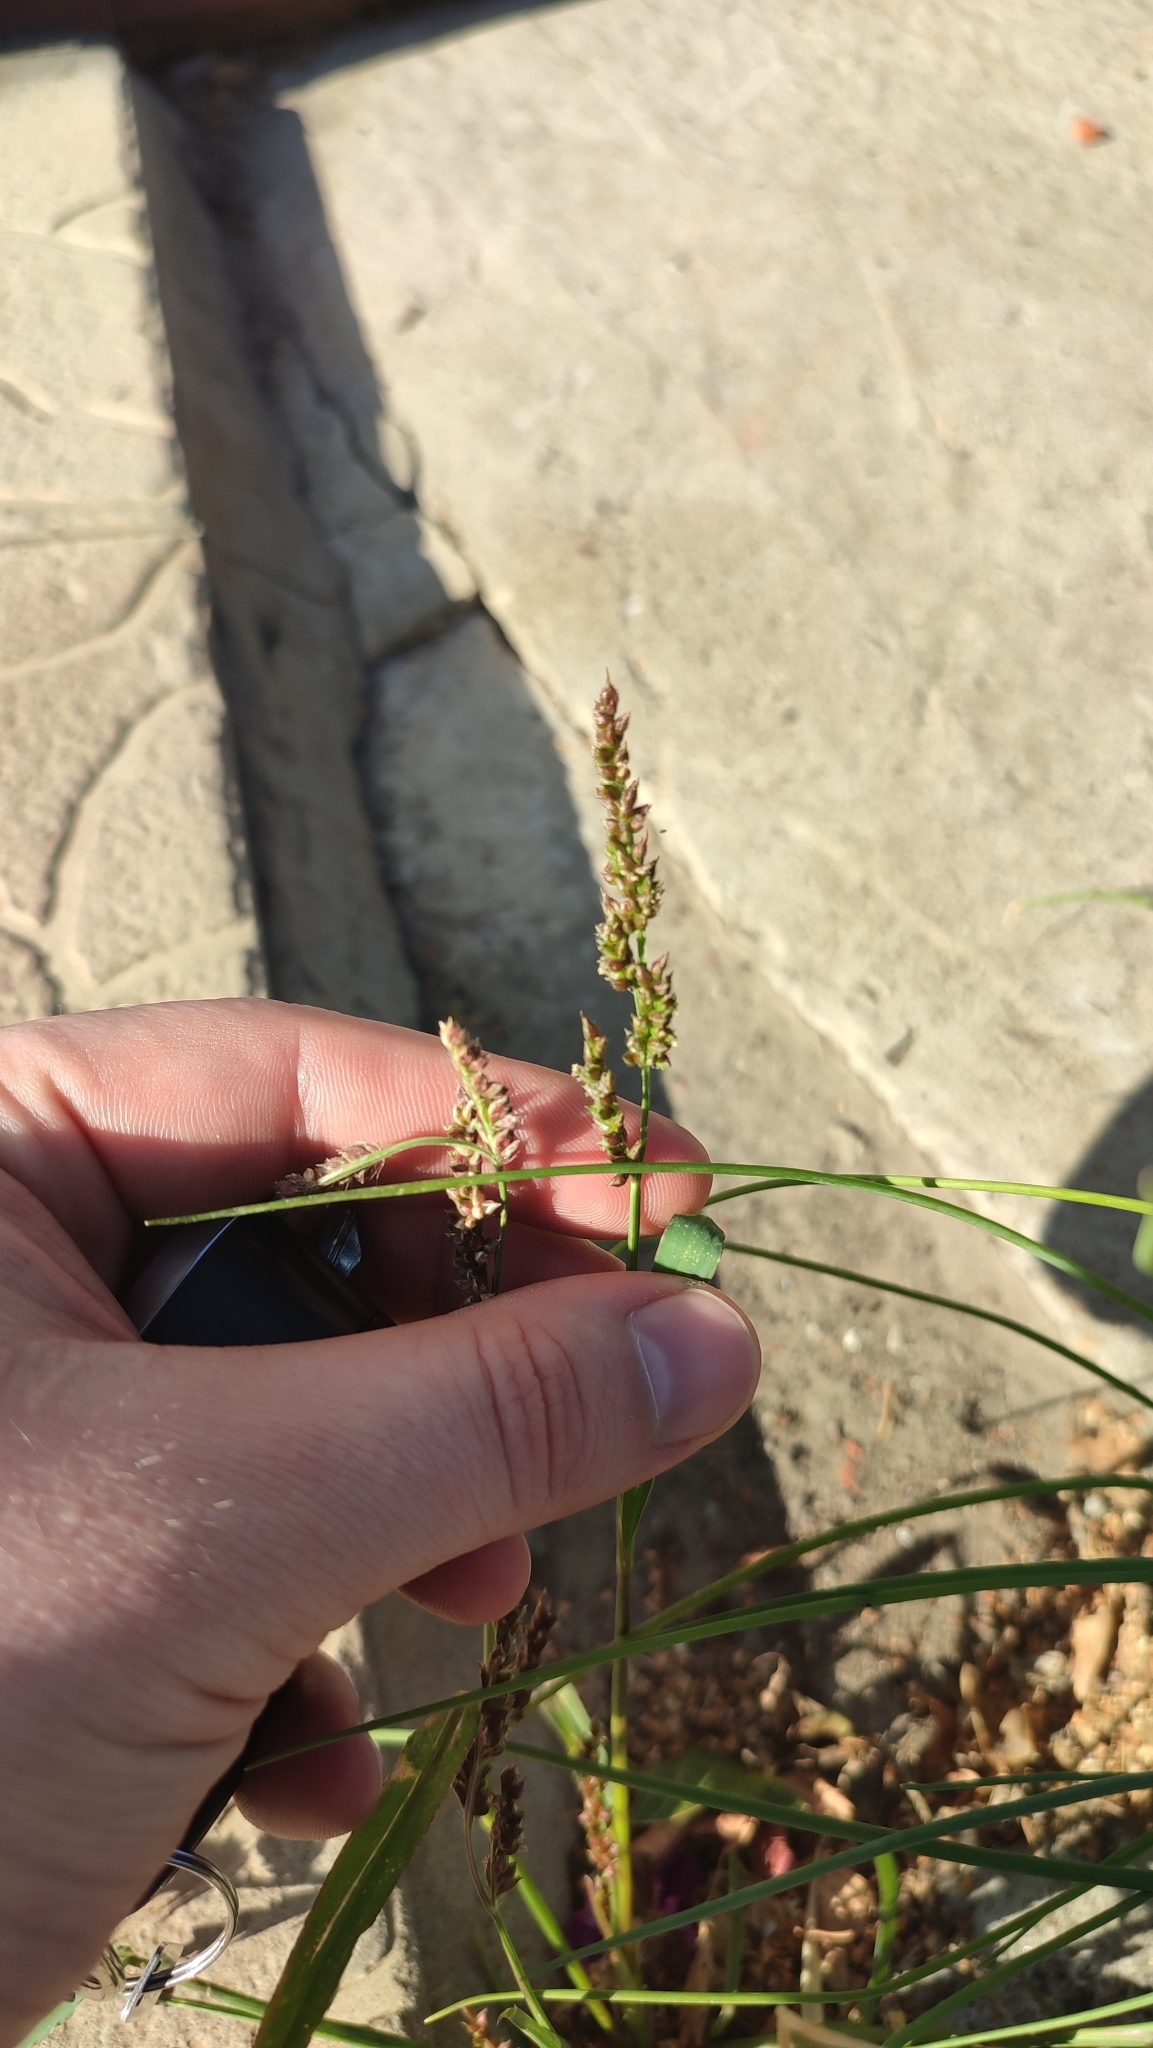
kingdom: Plantae
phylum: Tracheophyta
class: Liliopsida
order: Poales
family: Poaceae
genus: Echinochloa
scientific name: Echinochloa crus-galli
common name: Cockspur
